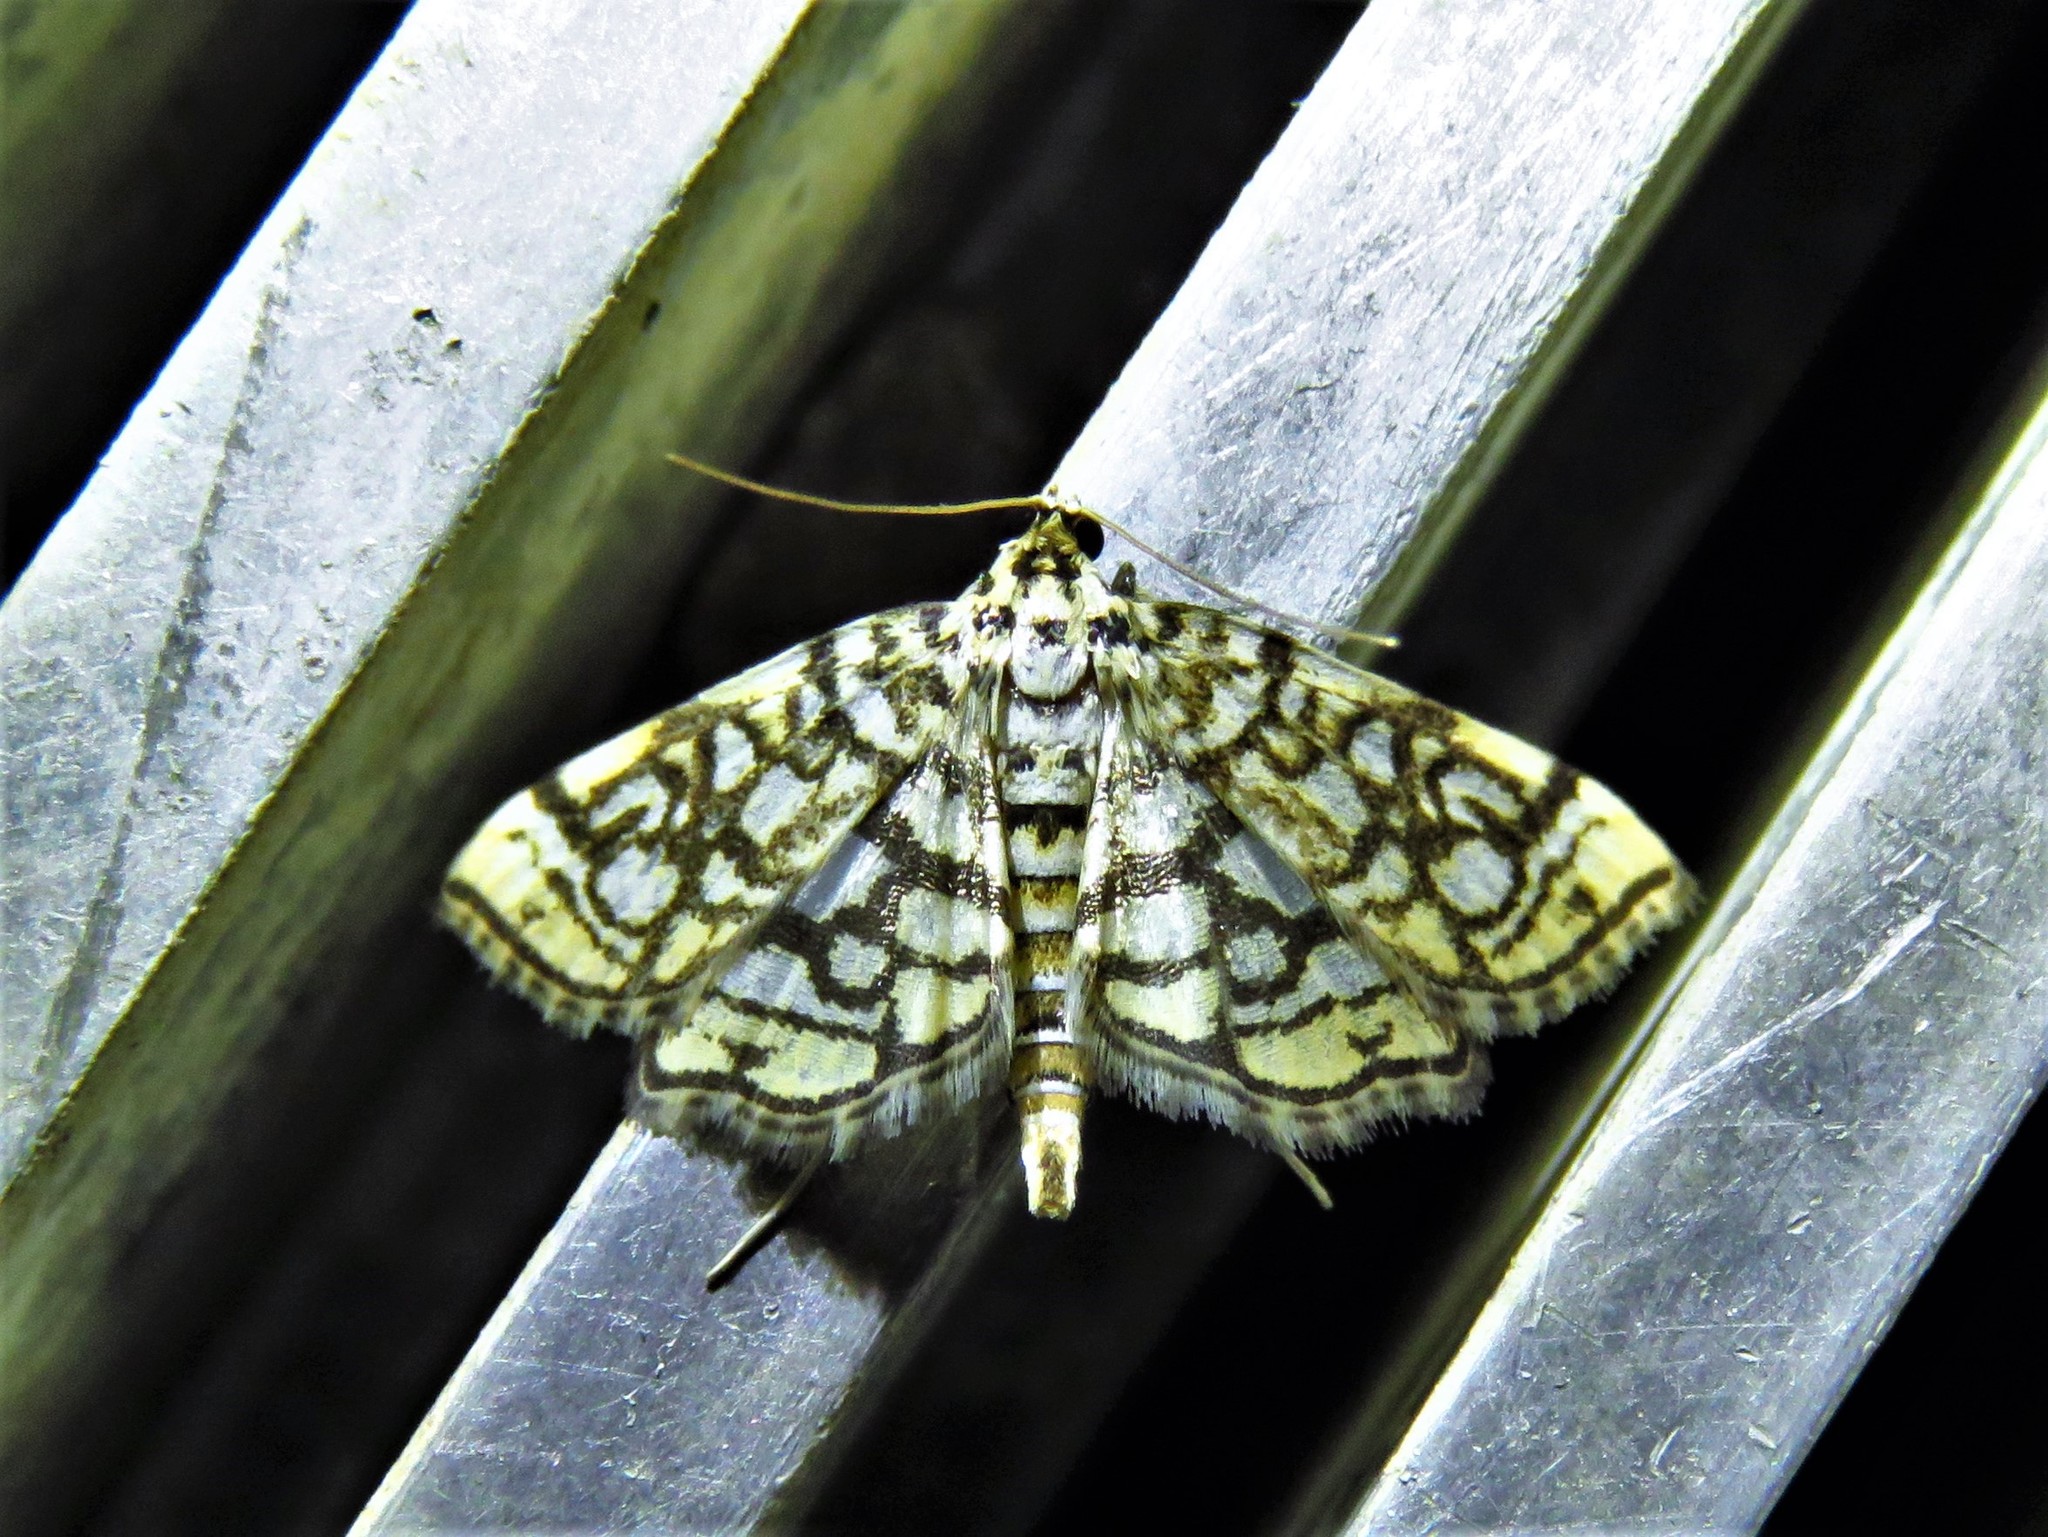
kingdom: Animalia
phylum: Arthropoda
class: Insecta
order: Lepidoptera
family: Crambidae
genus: Lygropia
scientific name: Lygropia rivulalis
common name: Bog lygropia moth
